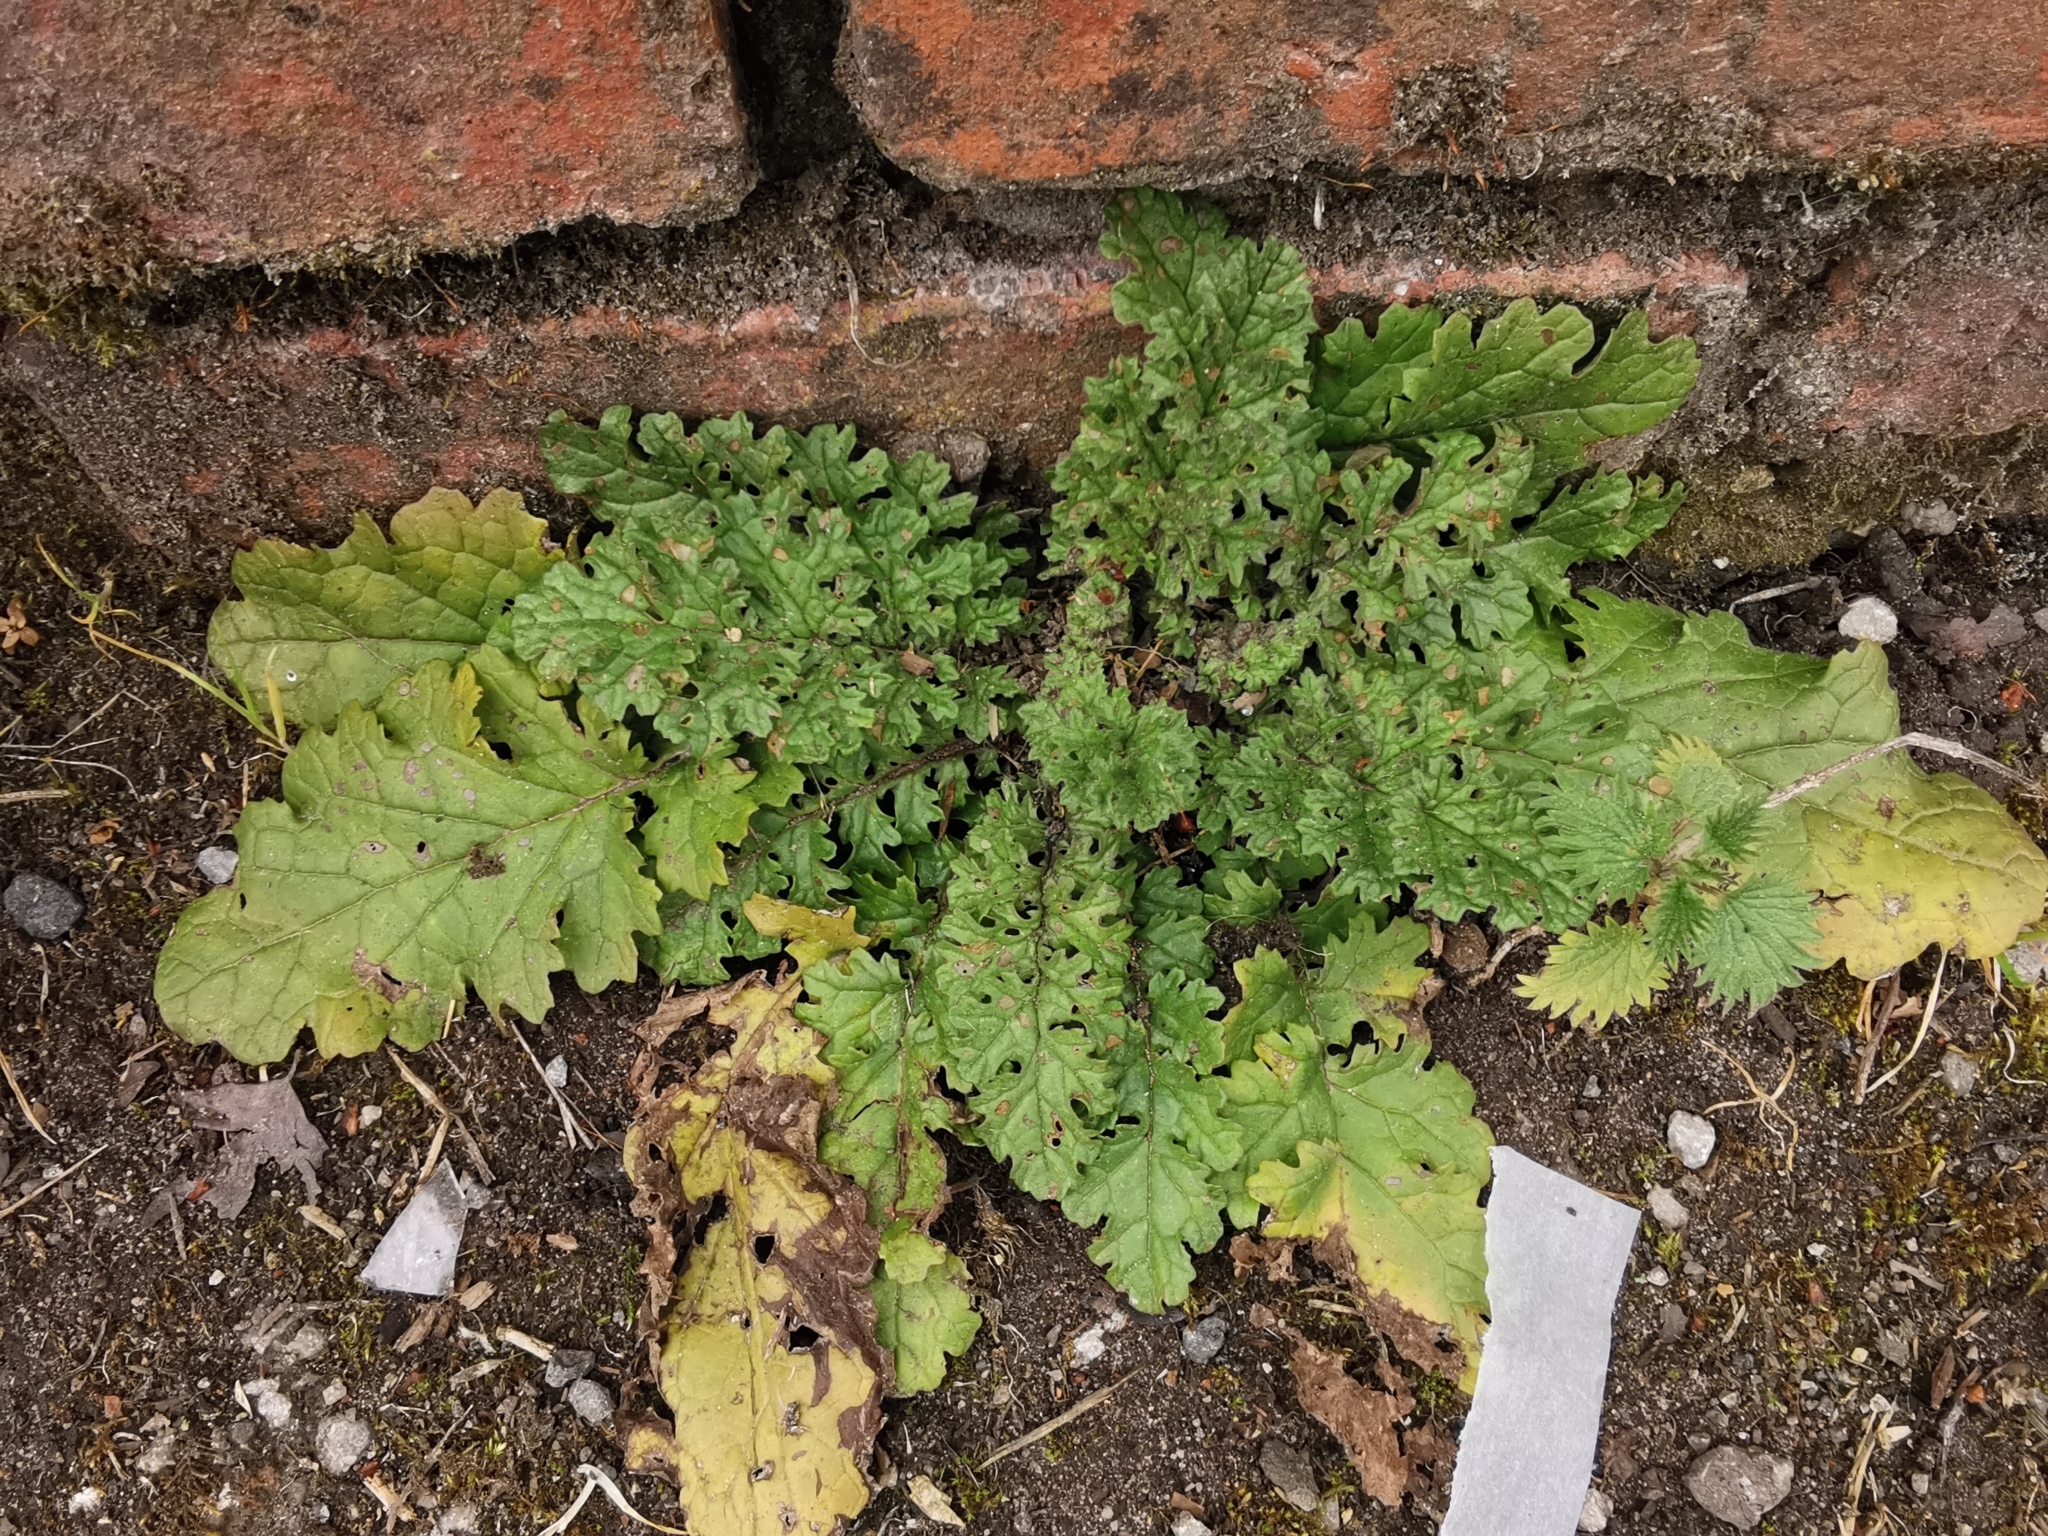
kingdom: Plantae
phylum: Tracheophyta
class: Magnoliopsida
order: Asterales
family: Asteraceae
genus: Jacobaea
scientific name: Jacobaea vulgaris
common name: Stinking willie
